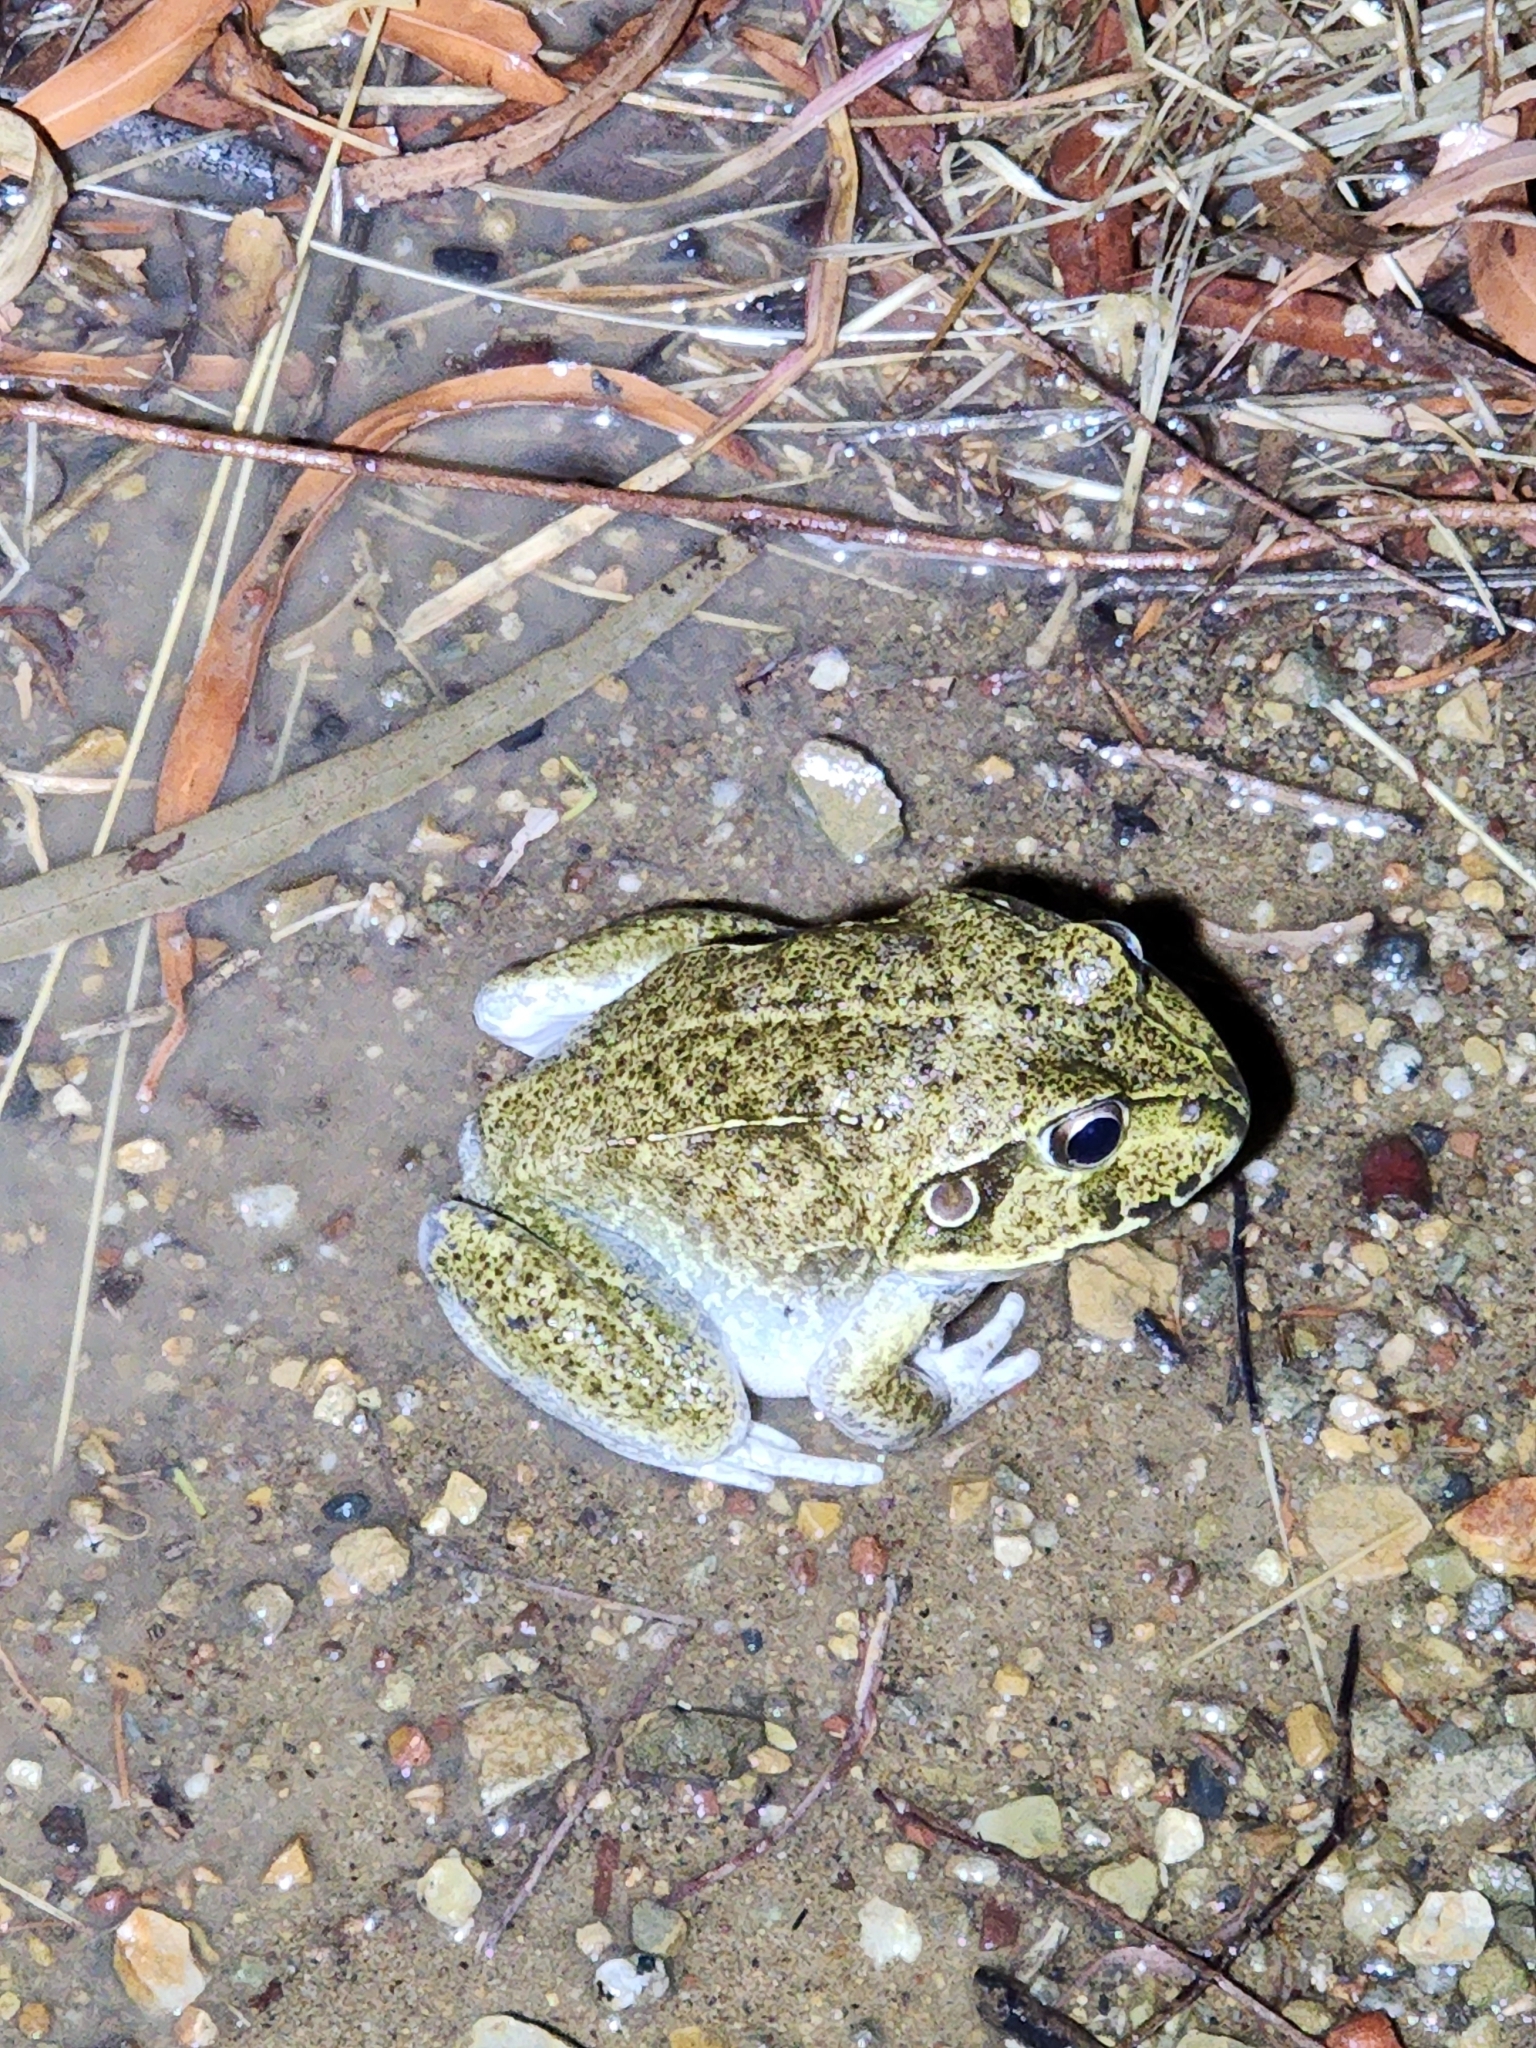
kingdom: Animalia
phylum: Chordata
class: Amphibia
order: Anura
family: Pelodryadidae
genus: Ranoidea
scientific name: Ranoidea novaehollandiae
